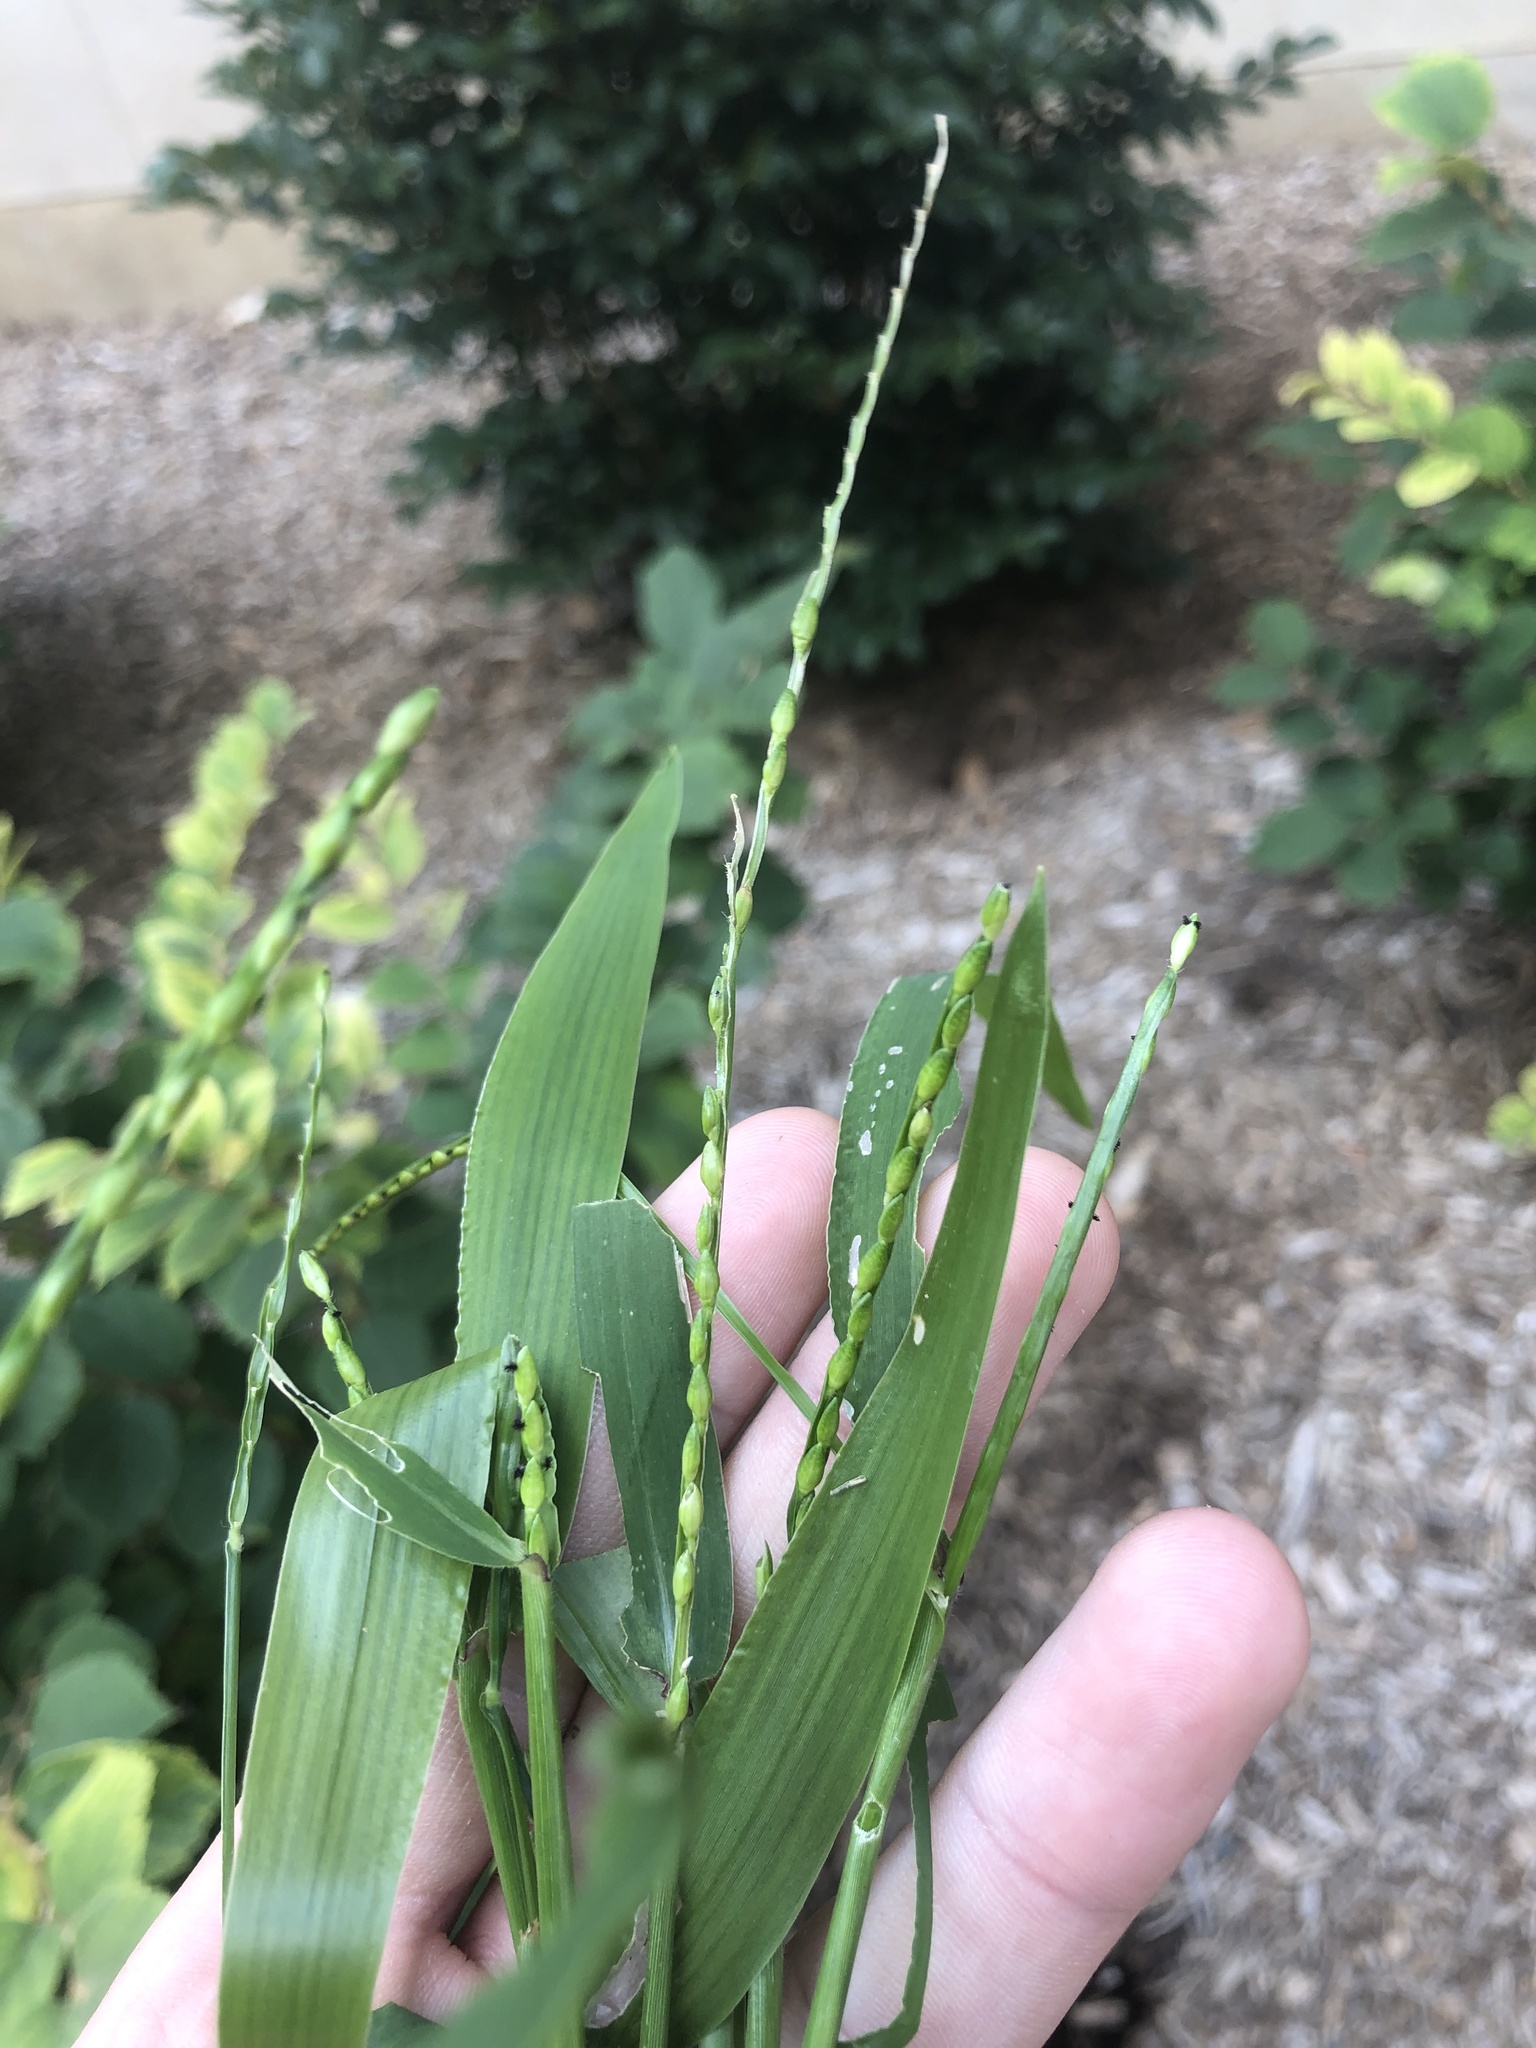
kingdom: Plantae
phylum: Tracheophyta
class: Liliopsida
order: Poales
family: Poaceae
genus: Urochloa
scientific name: Urochloa platyphylla
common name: White para grass
